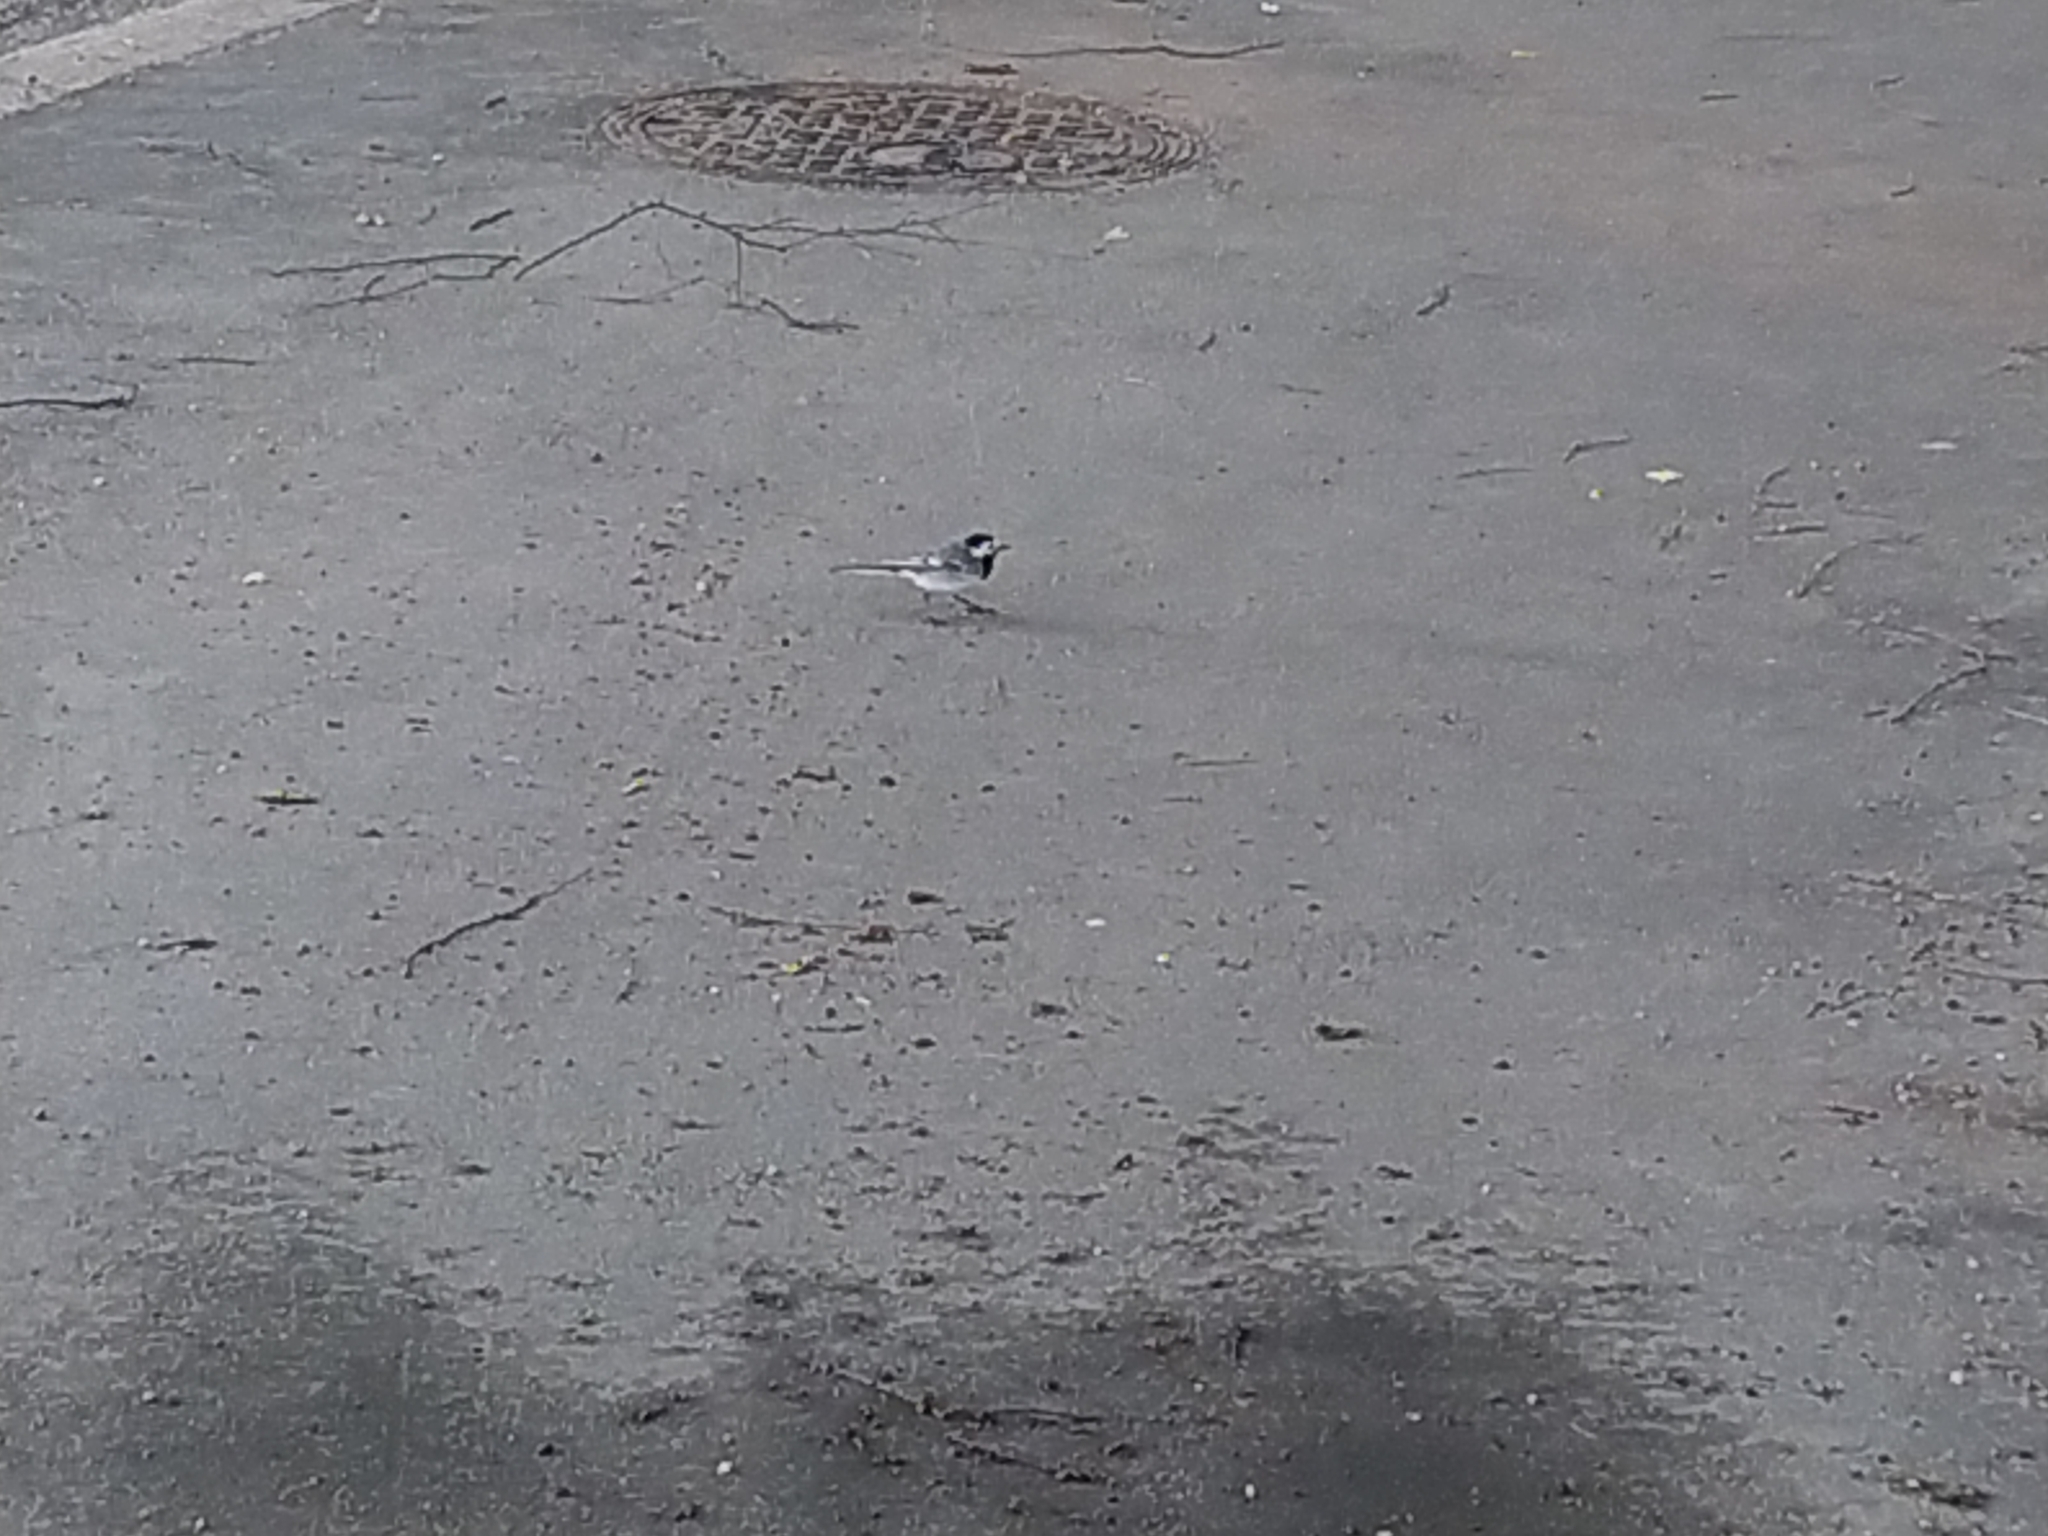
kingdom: Animalia
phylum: Chordata
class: Aves
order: Passeriformes
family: Motacillidae
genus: Motacilla
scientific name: Motacilla alba
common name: White wagtail
